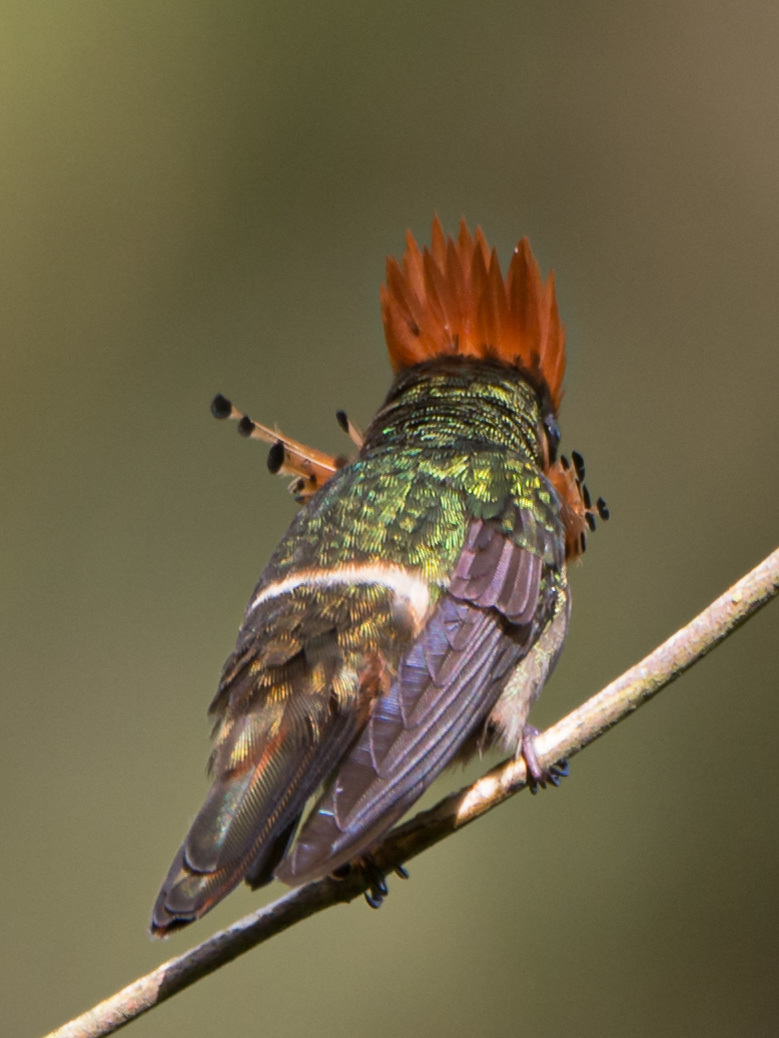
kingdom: Animalia
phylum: Chordata
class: Aves
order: Apodiformes
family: Trochilidae
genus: Lophornis
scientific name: Lophornis ornatus
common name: Tufted coquette
